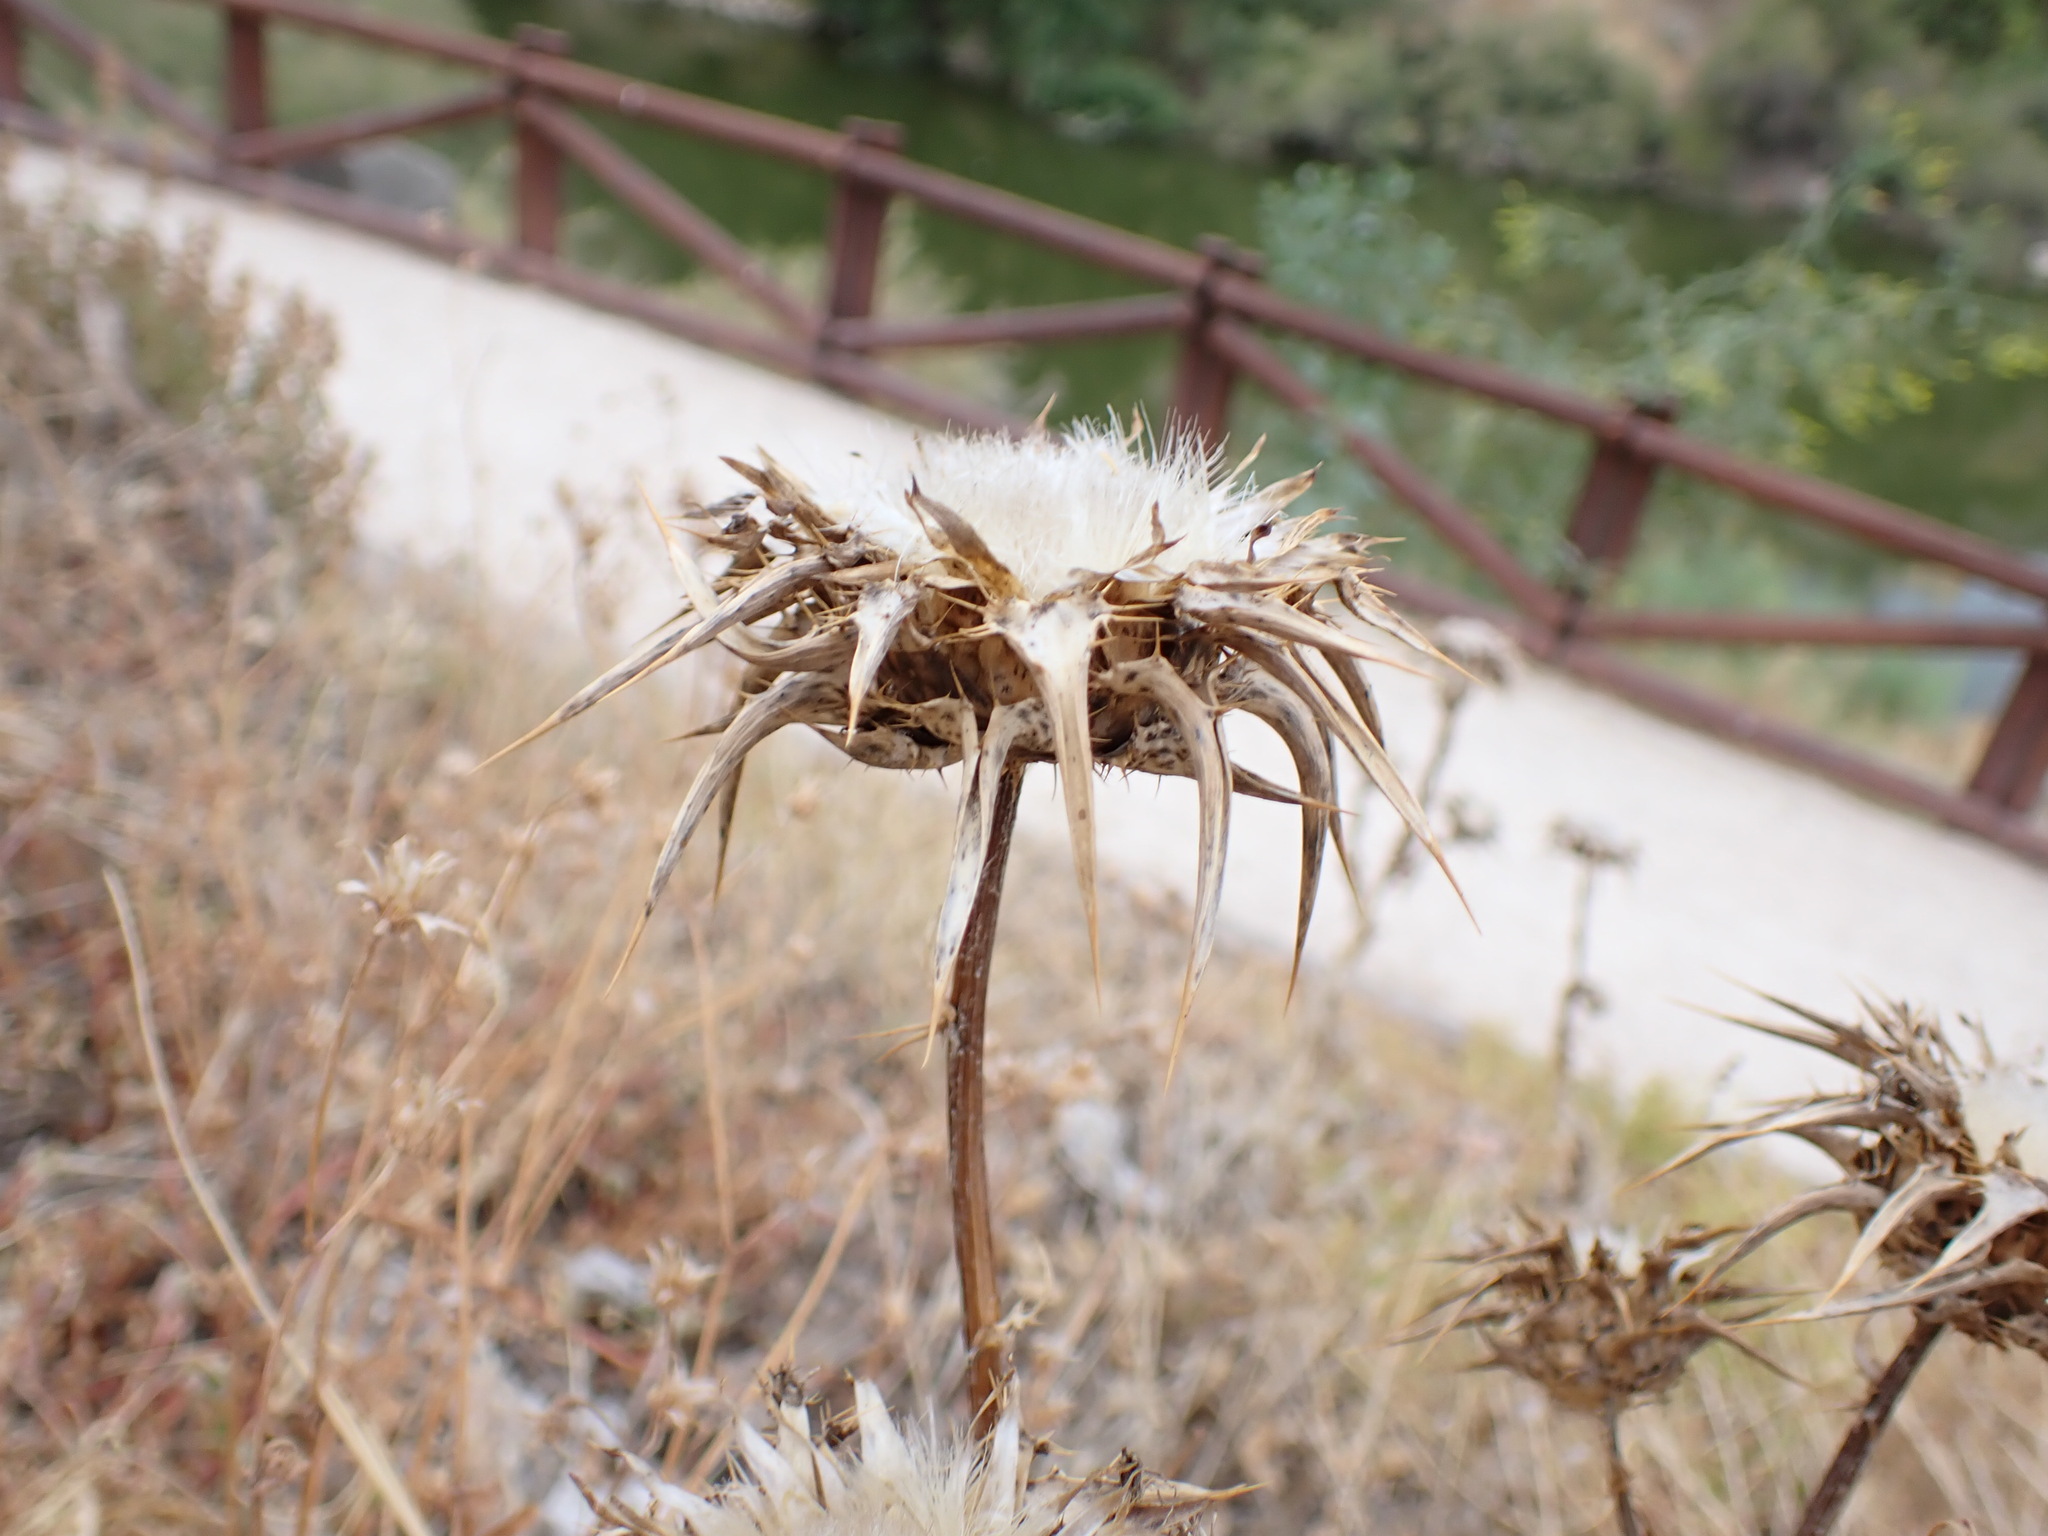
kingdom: Plantae
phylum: Tracheophyta
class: Magnoliopsida
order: Asterales
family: Asteraceae
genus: Silybum
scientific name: Silybum marianum
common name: Milk thistle
